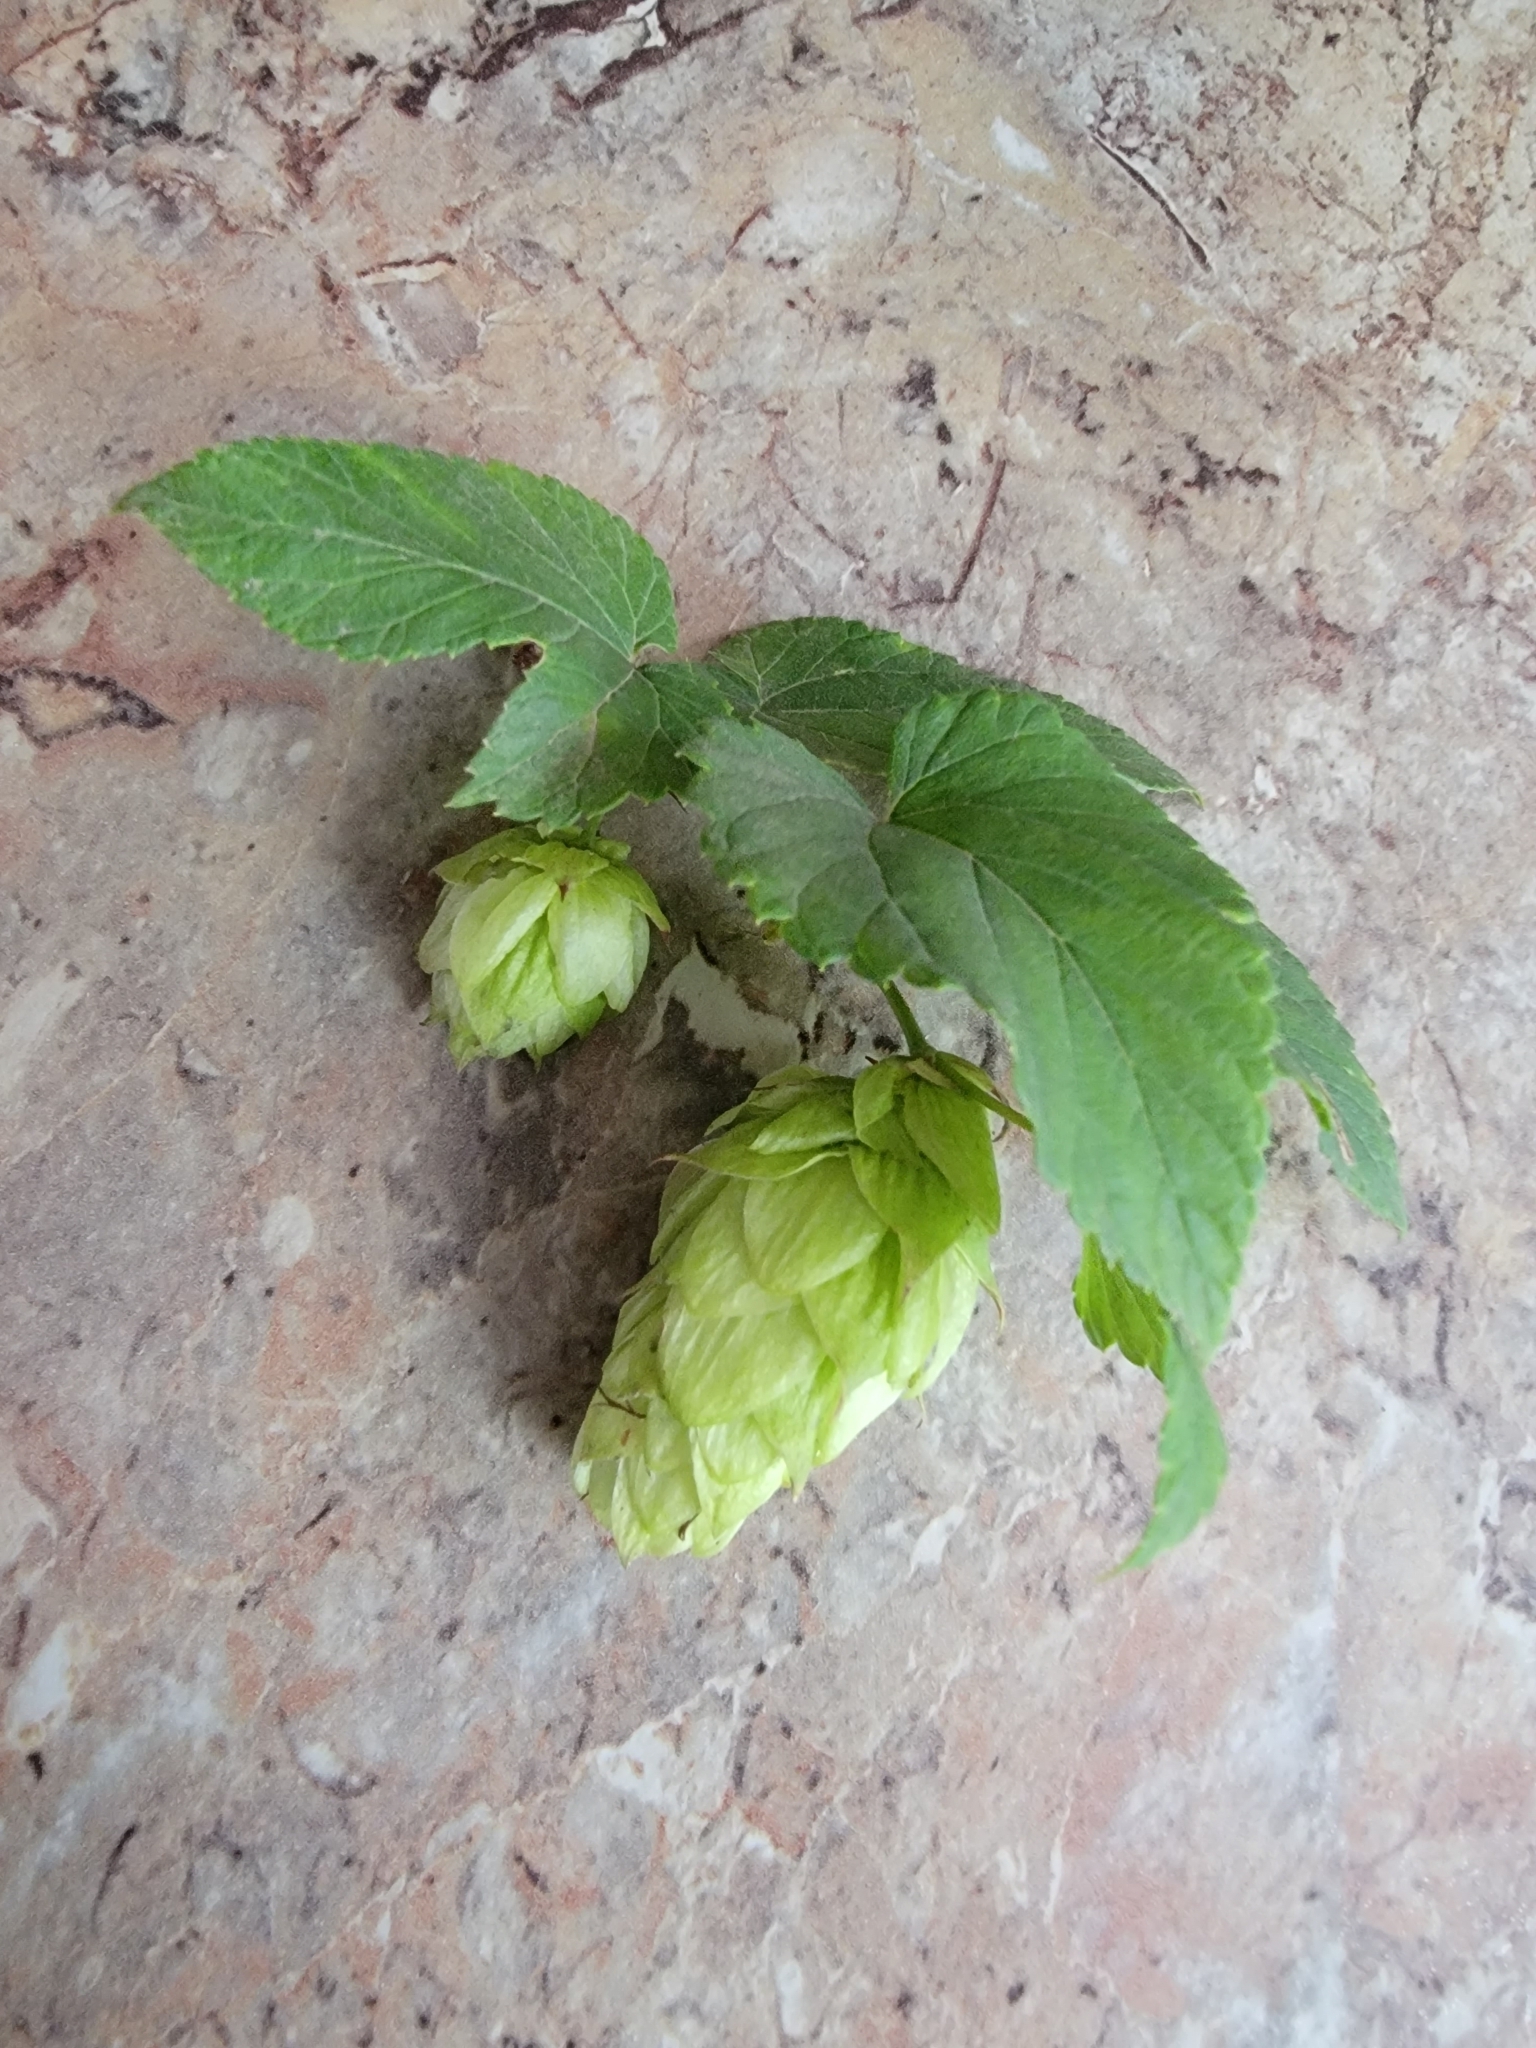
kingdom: Plantae
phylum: Tracheophyta
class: Magnoliopsida
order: Rosales
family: Cannabaceae
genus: Humulus
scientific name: Humulus lupulus
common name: Hop
